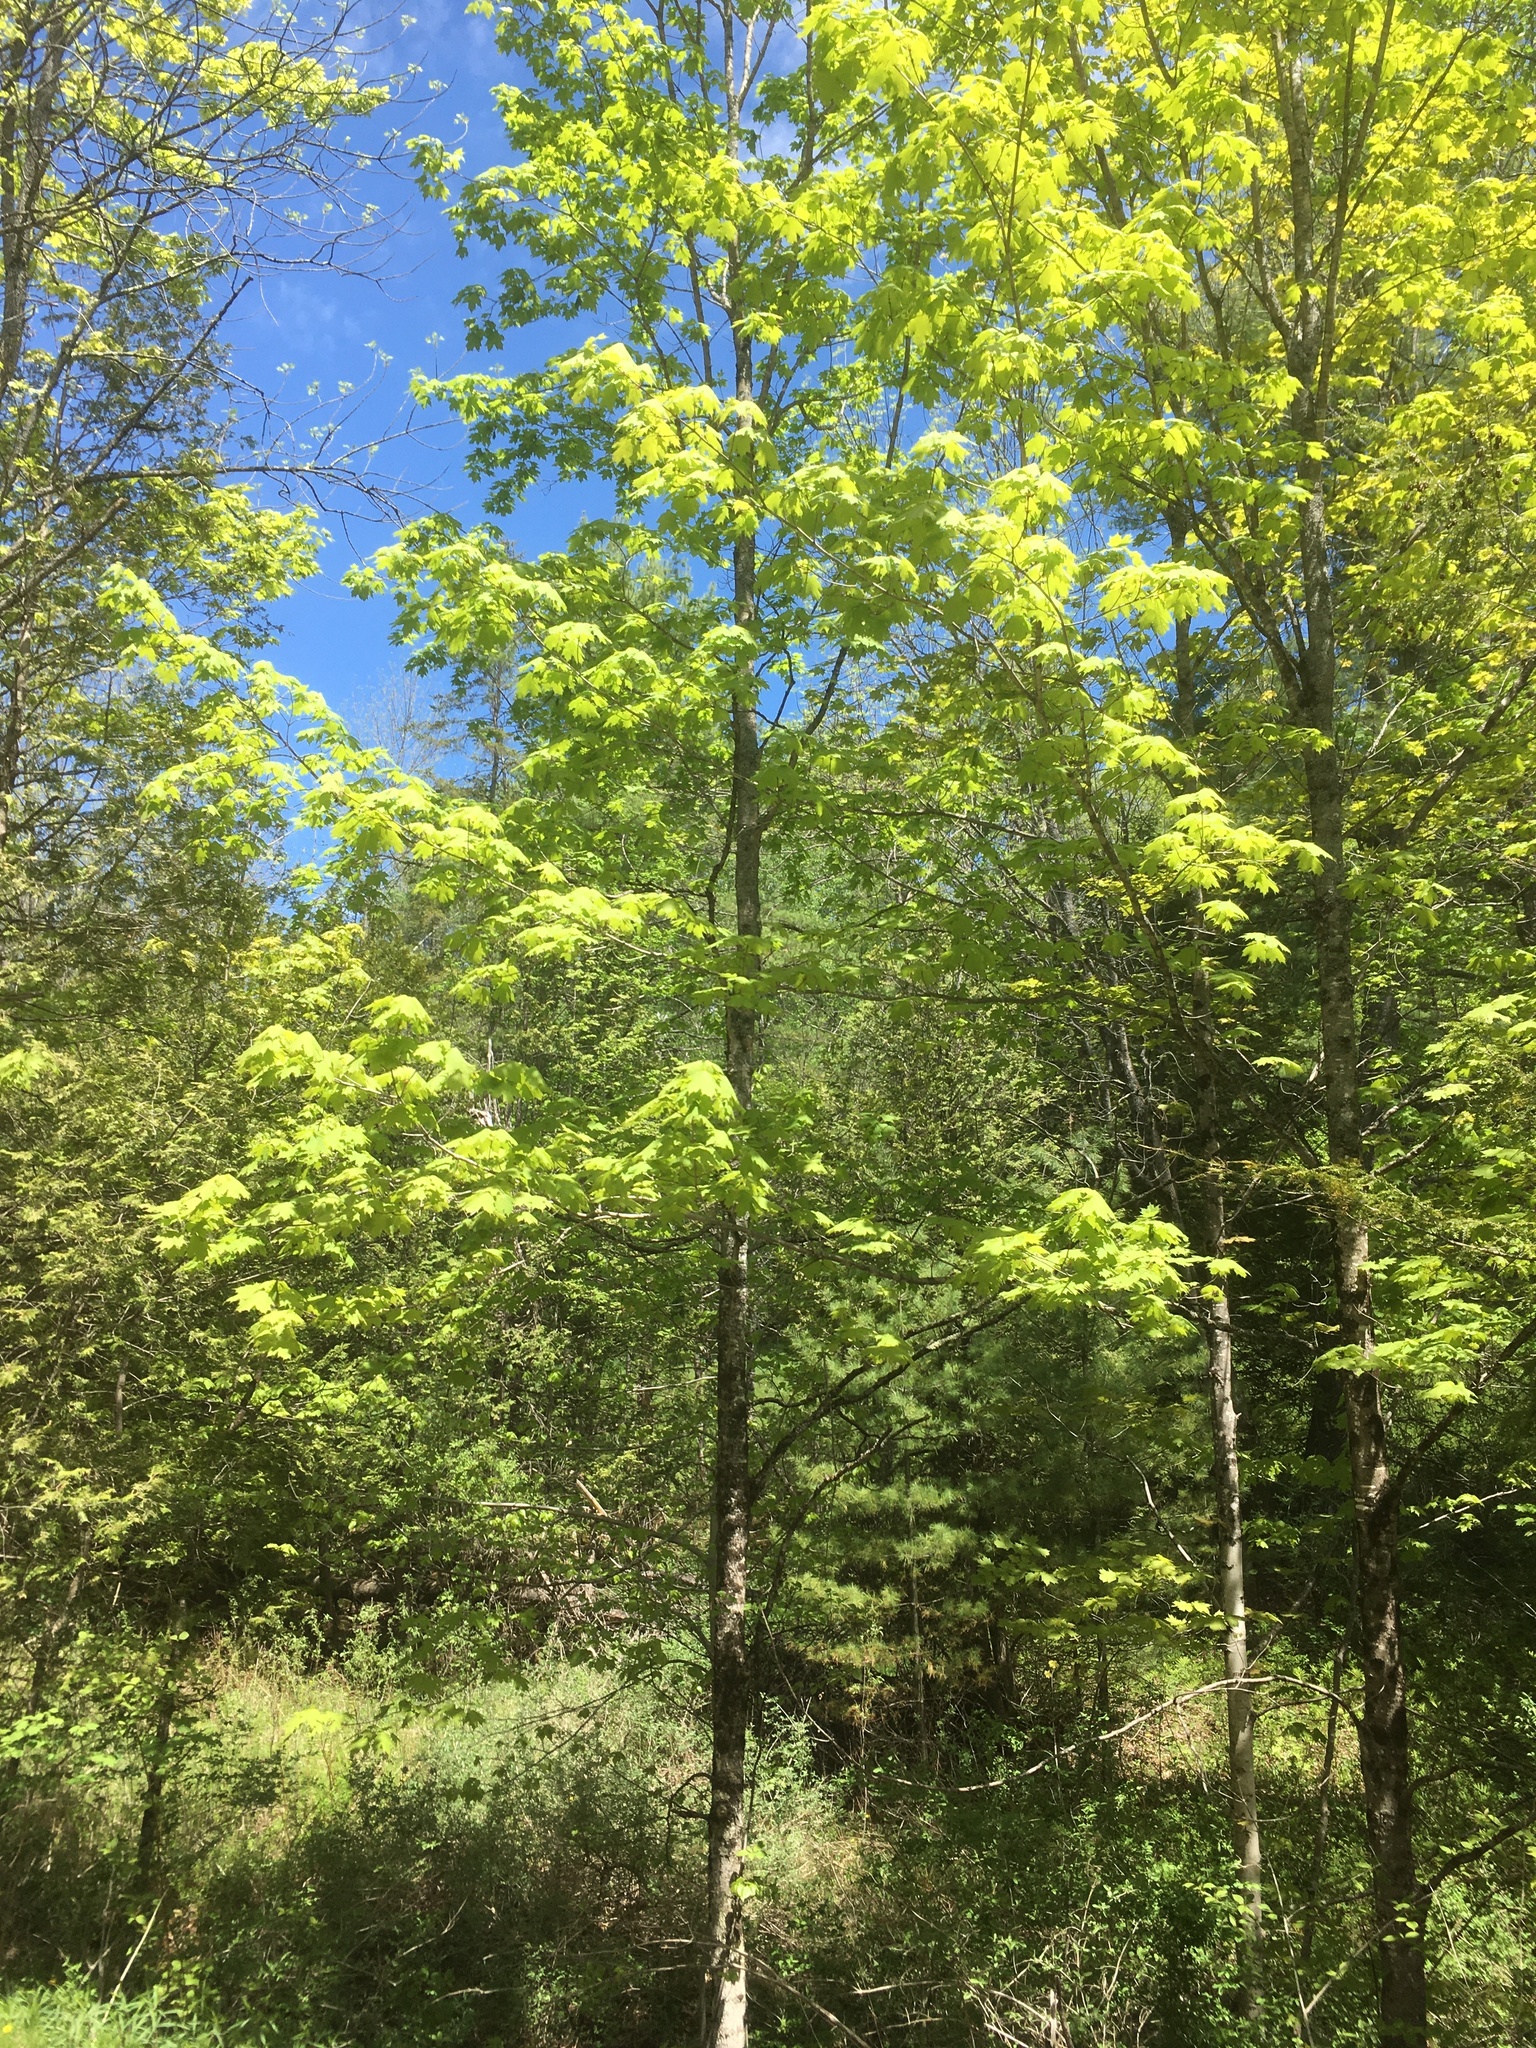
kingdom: Plantae
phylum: Tracheophyta
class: Magnoliopsida
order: Sapindales
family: Sapindaceae
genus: Acer
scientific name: Acer saccharum
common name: Sugar maple
